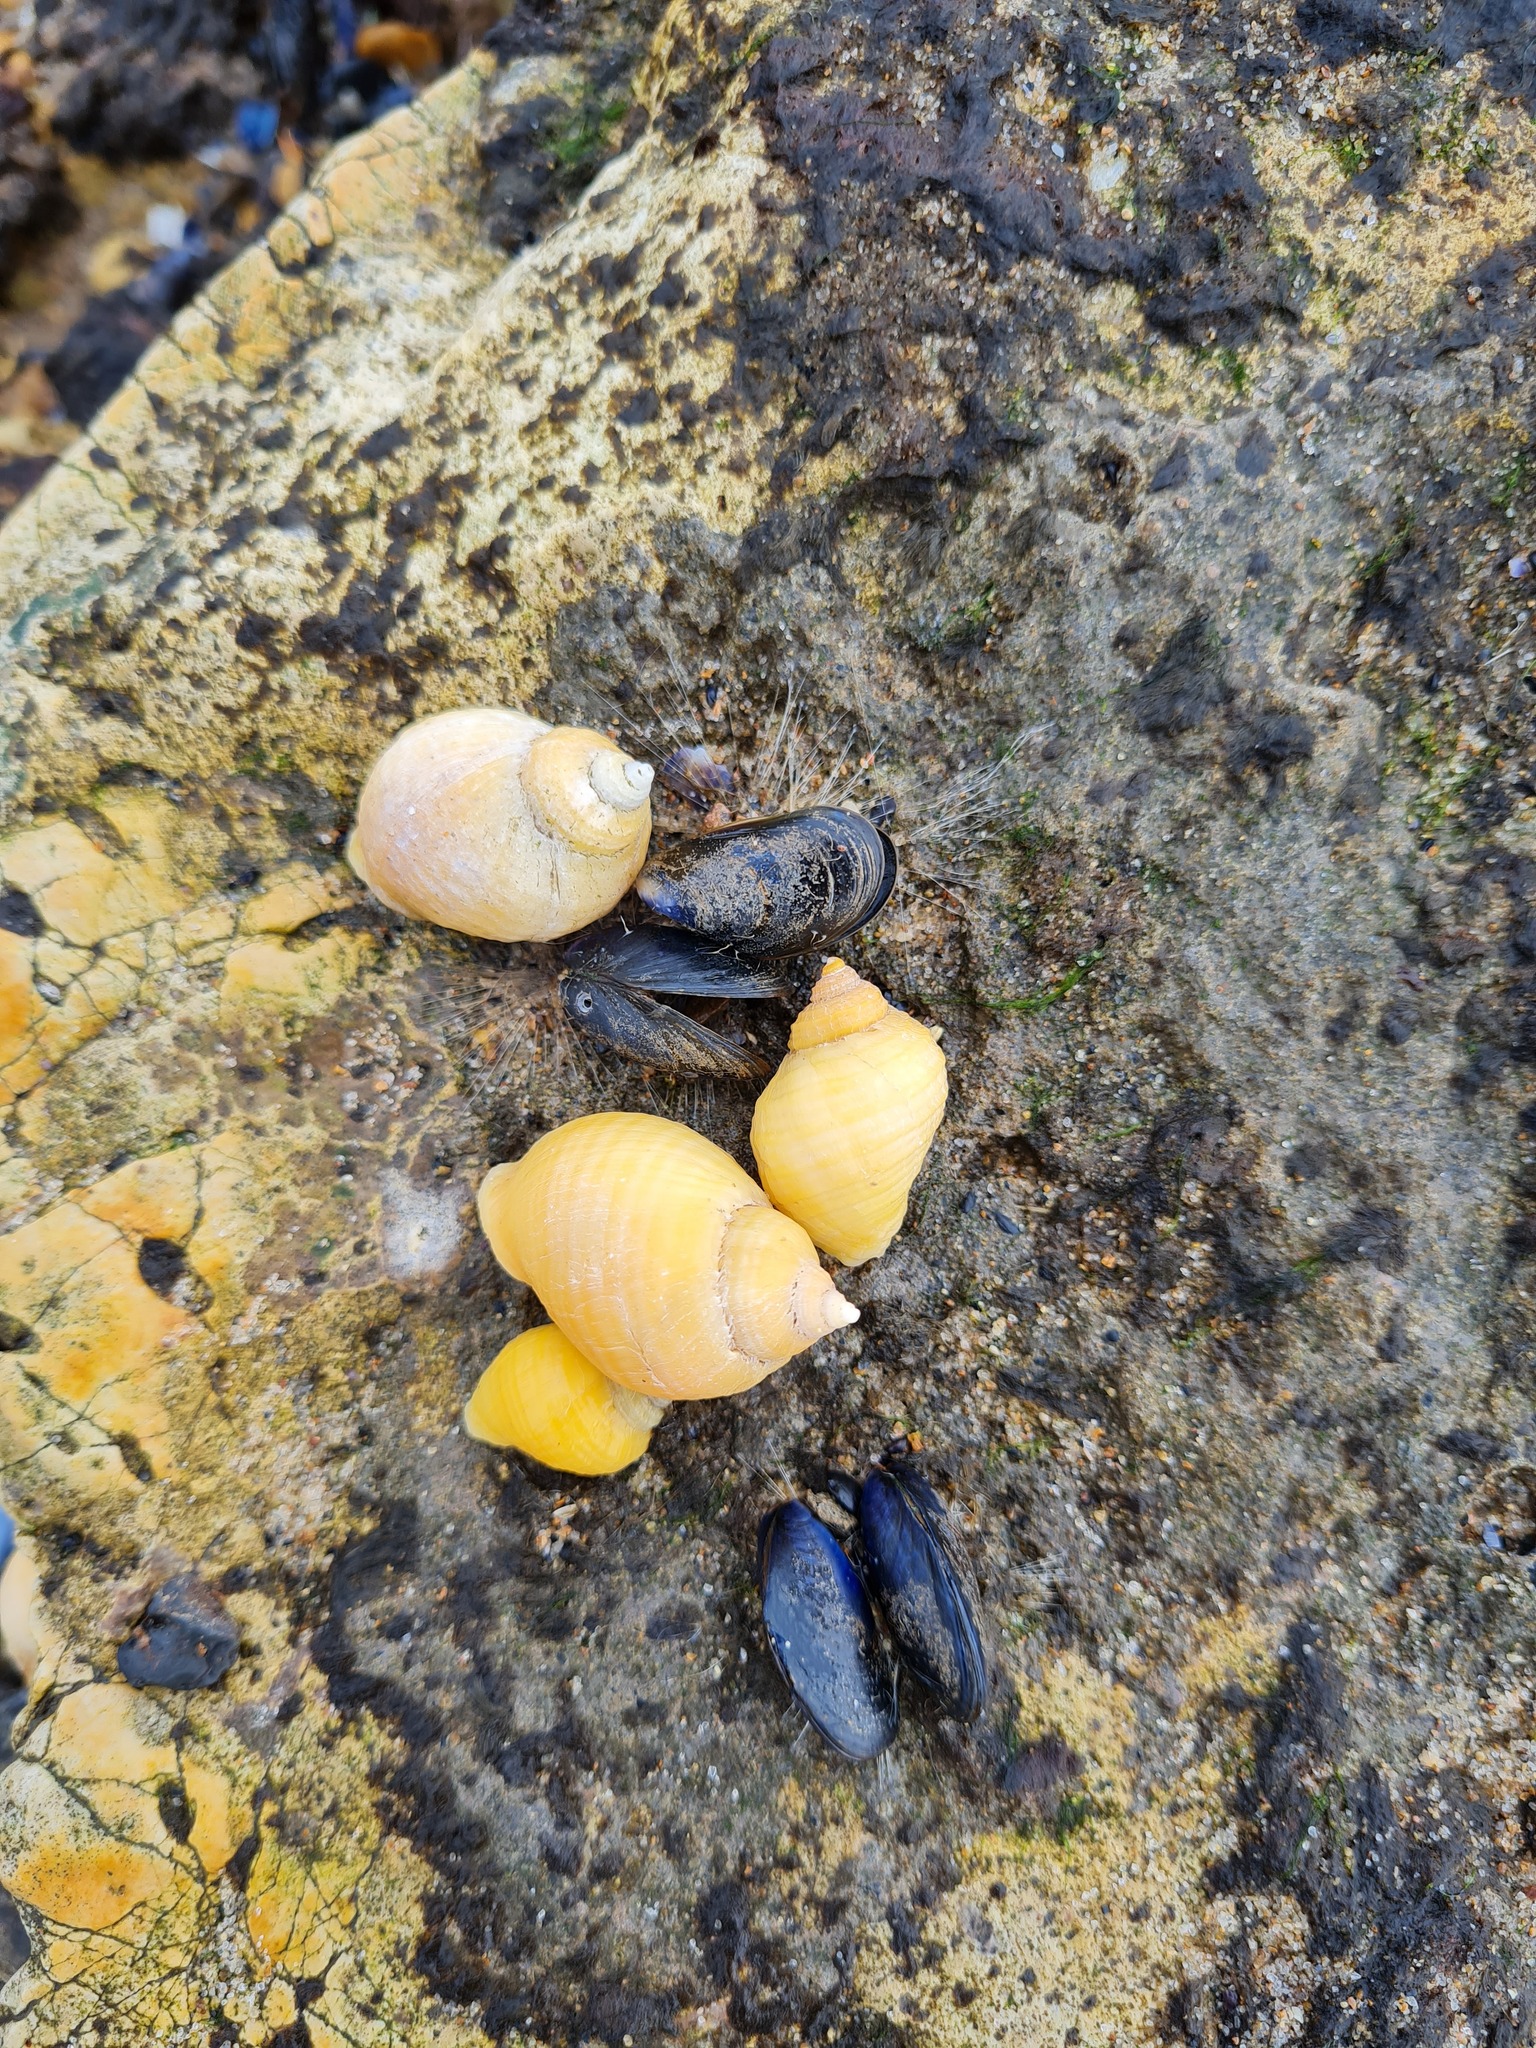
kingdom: Animalia
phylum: Mollusca
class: Gastropoda
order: Neogastropoda
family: Muricidae
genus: Nucella
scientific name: Nucella lapillus
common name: Dog whelk
